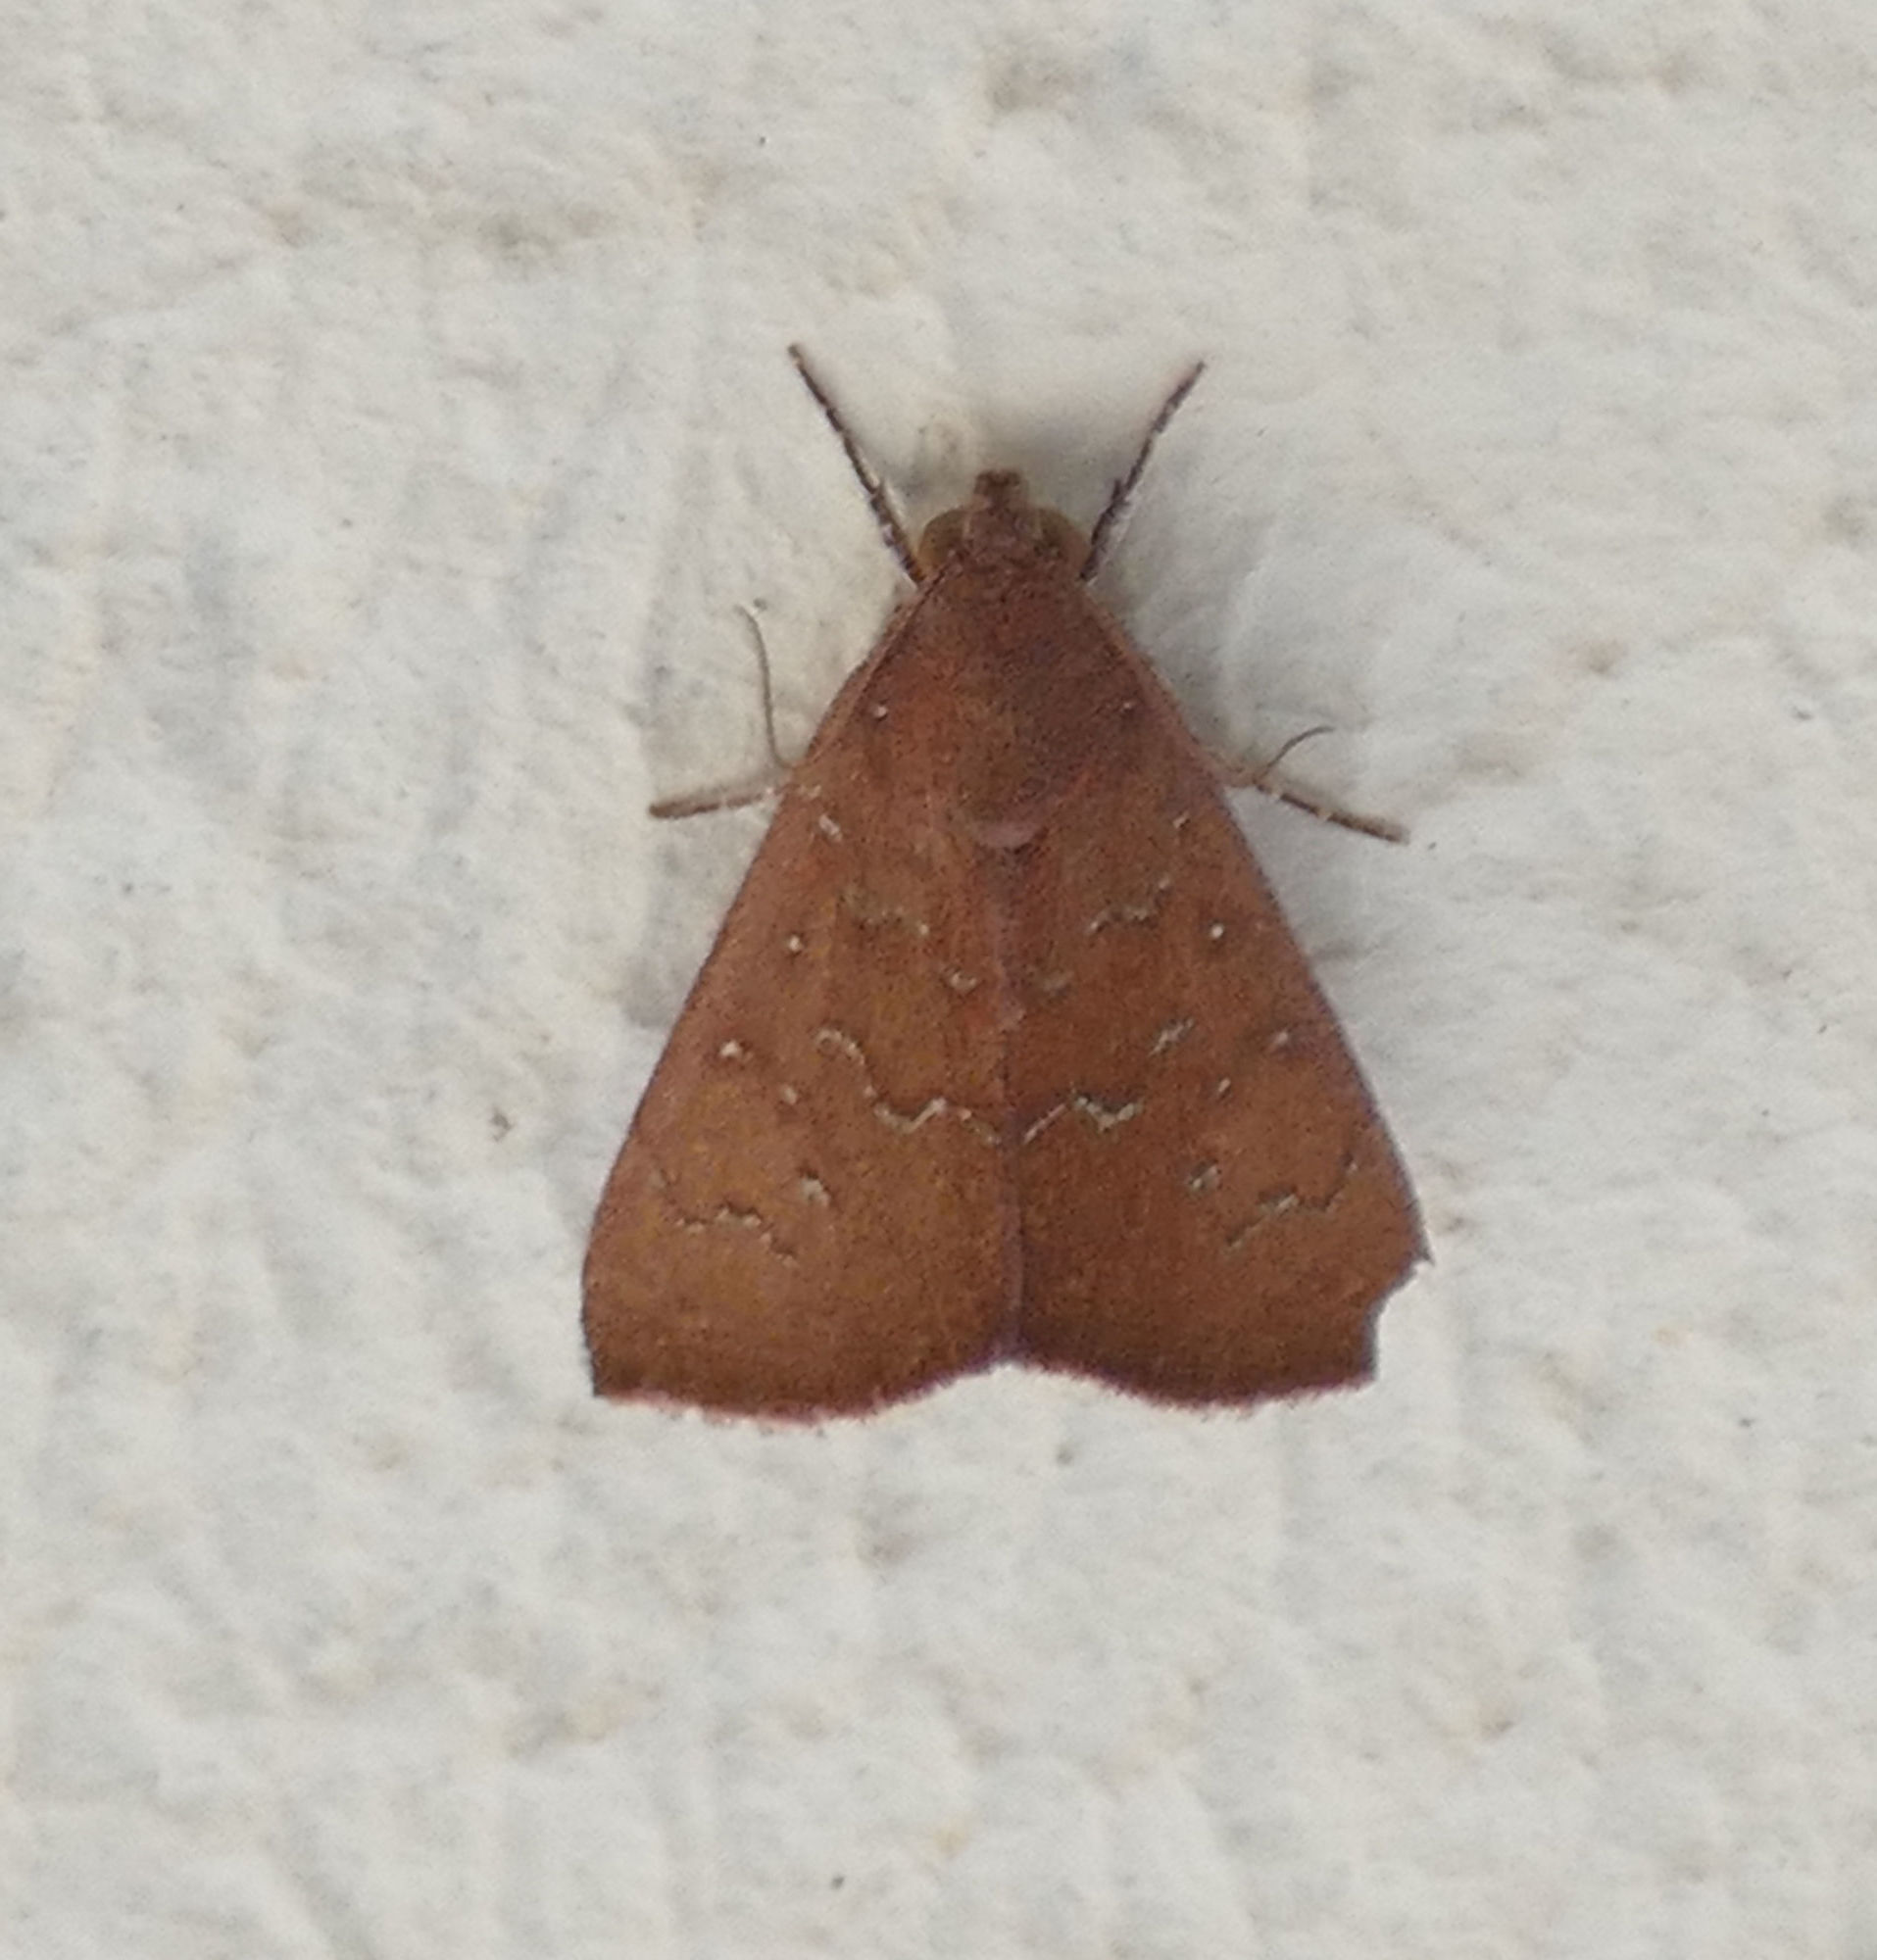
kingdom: Animalia
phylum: Arthropoda
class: Insecta
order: Lepidoptera
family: Erebidae
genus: Anomis
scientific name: Anomis illita
